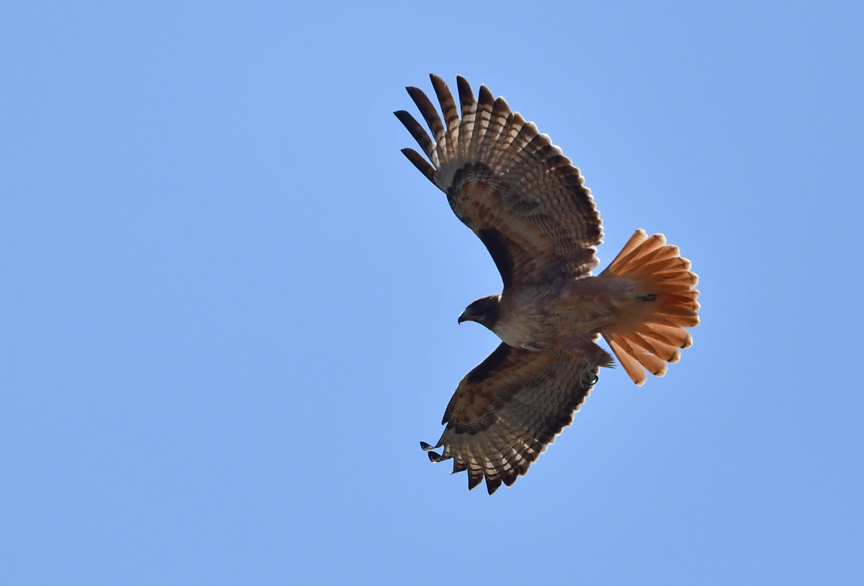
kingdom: Animalia
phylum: Chordata
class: Aves
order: Accipitriformes
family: Accipitridae
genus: Buteo
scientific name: Buteo jamaicensis
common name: Red-tailed hawk
